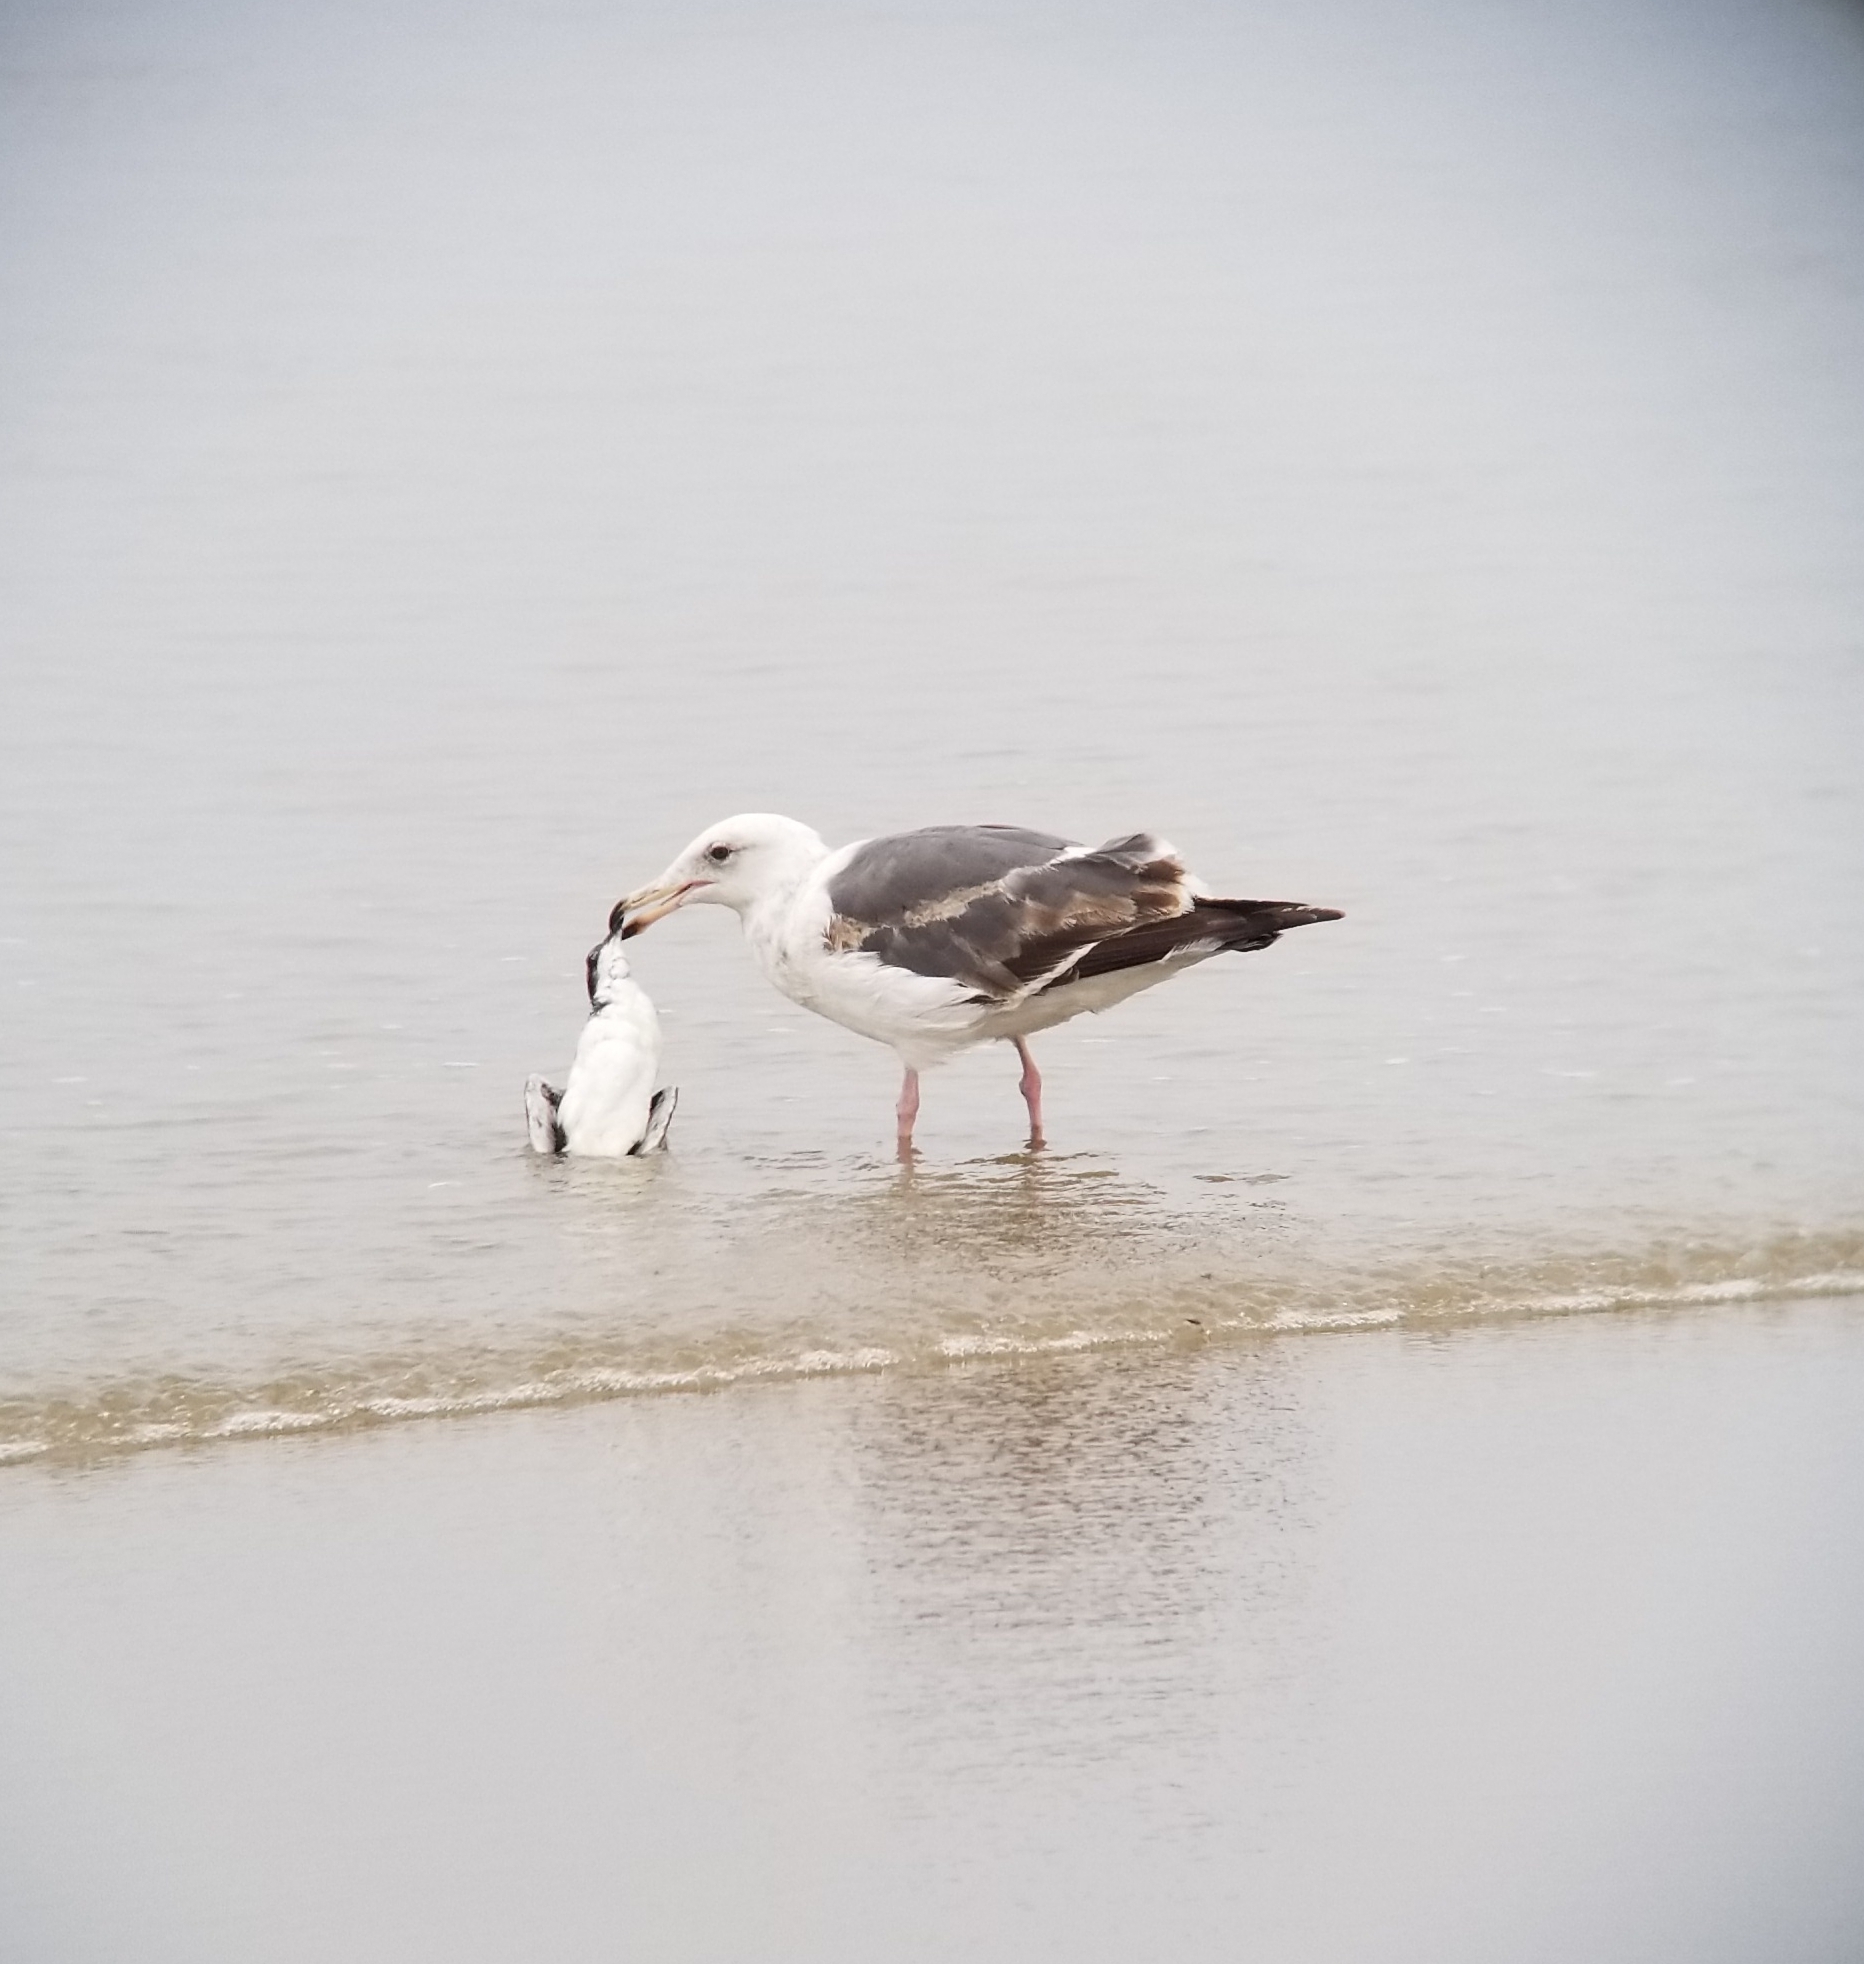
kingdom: Animalia
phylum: Chordata
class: Aves
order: Charadriiformes
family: Laridae
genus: Larus
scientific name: Larus occidentalis
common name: Western gull
